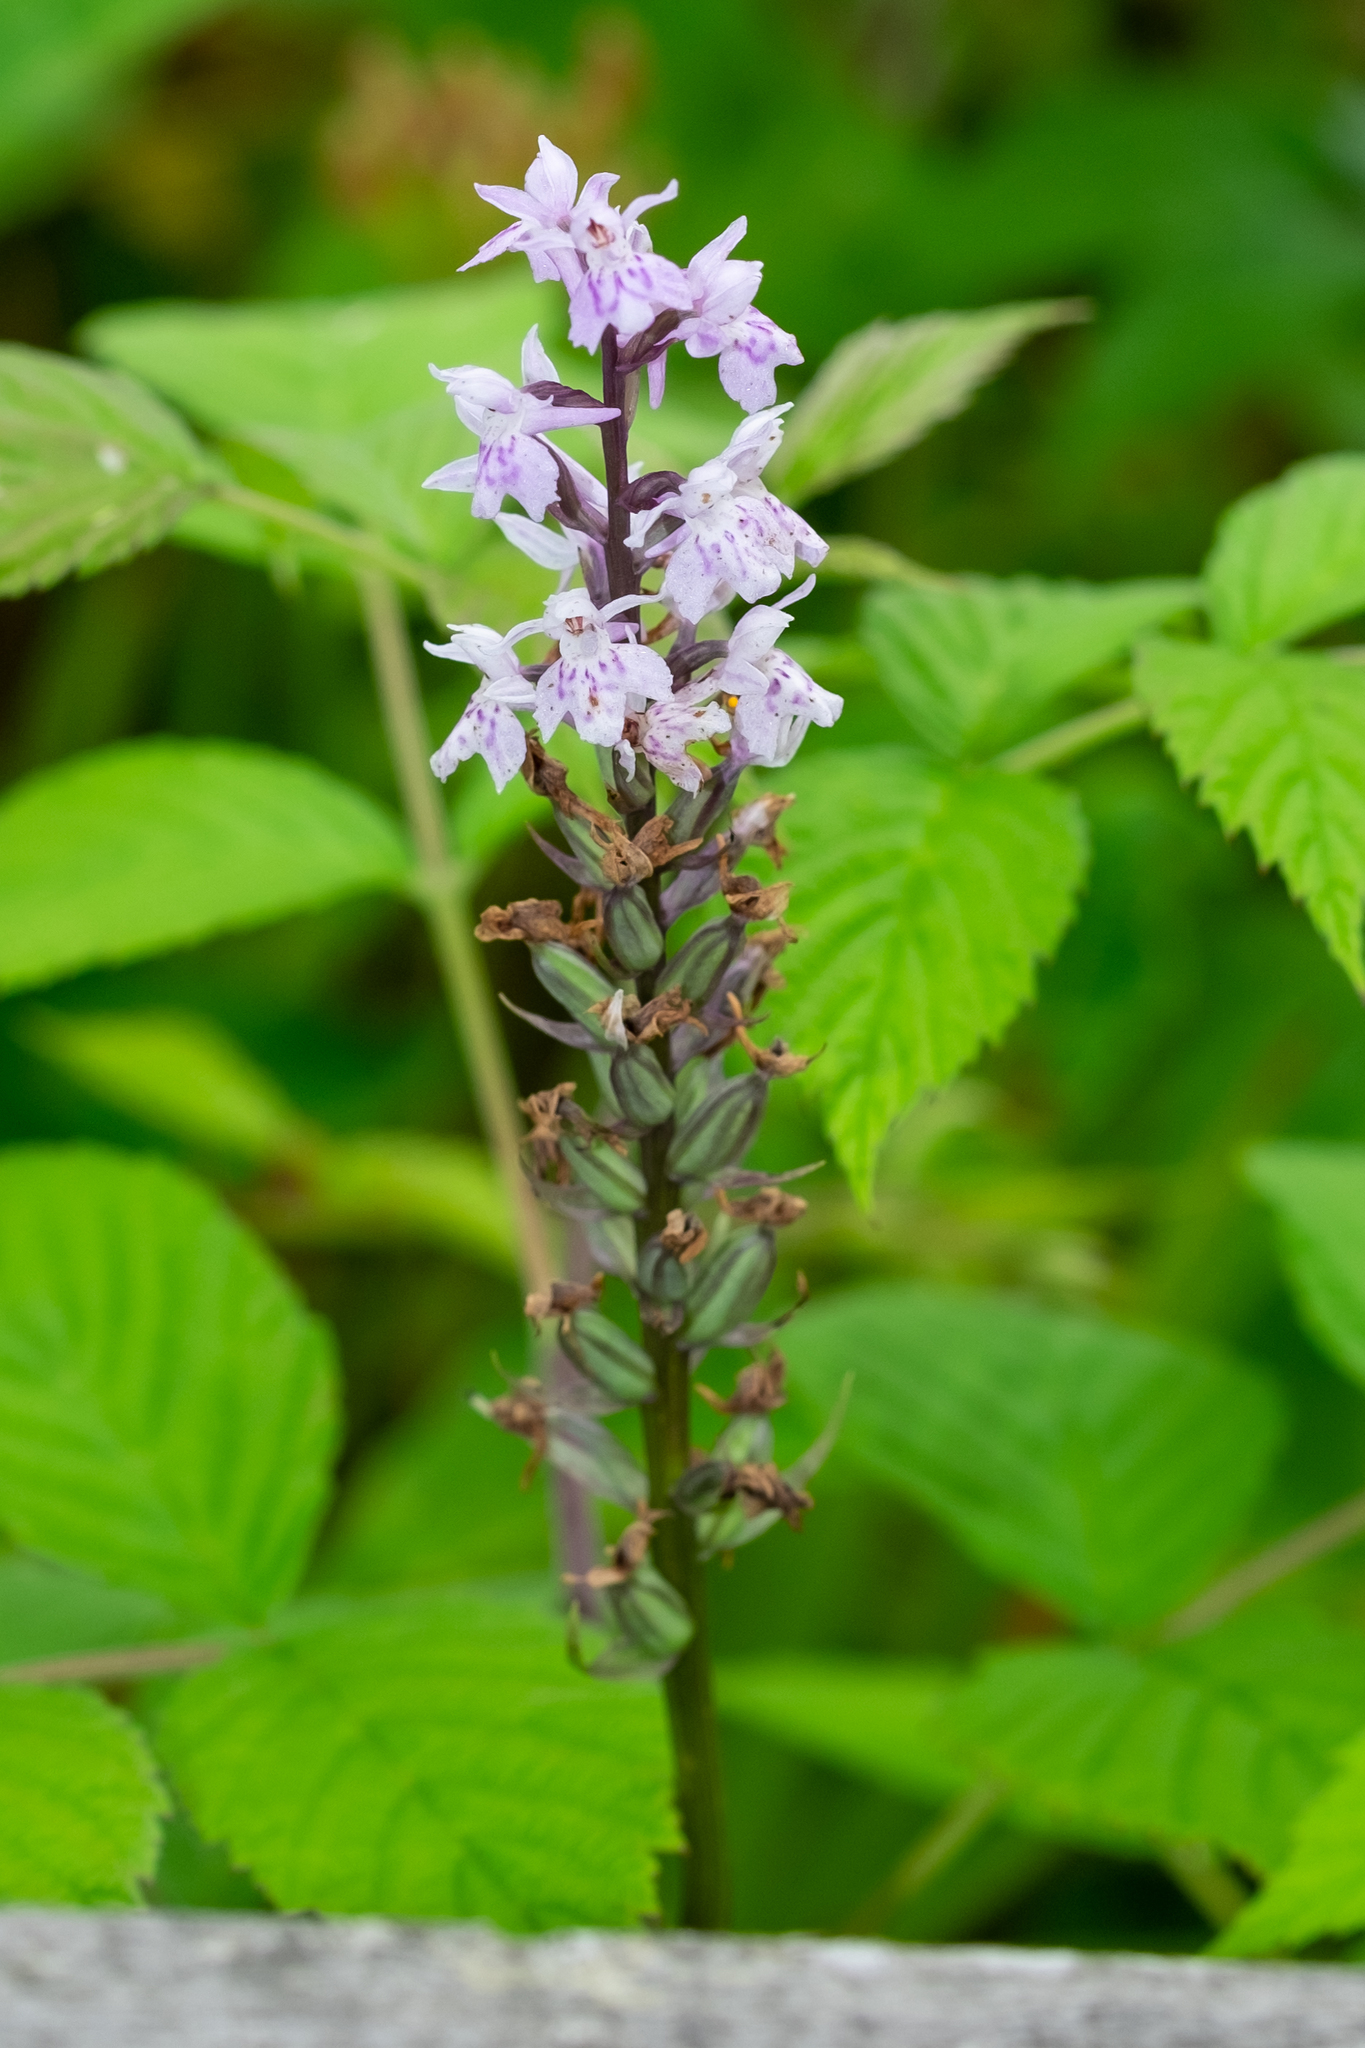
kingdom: Plantae
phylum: Tracheophyta
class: Liliopsida
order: Asparagales
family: Orchidaceae
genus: Dactylorhiza
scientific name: Dactylorhiza maculata
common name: Heath spotted-orchid
